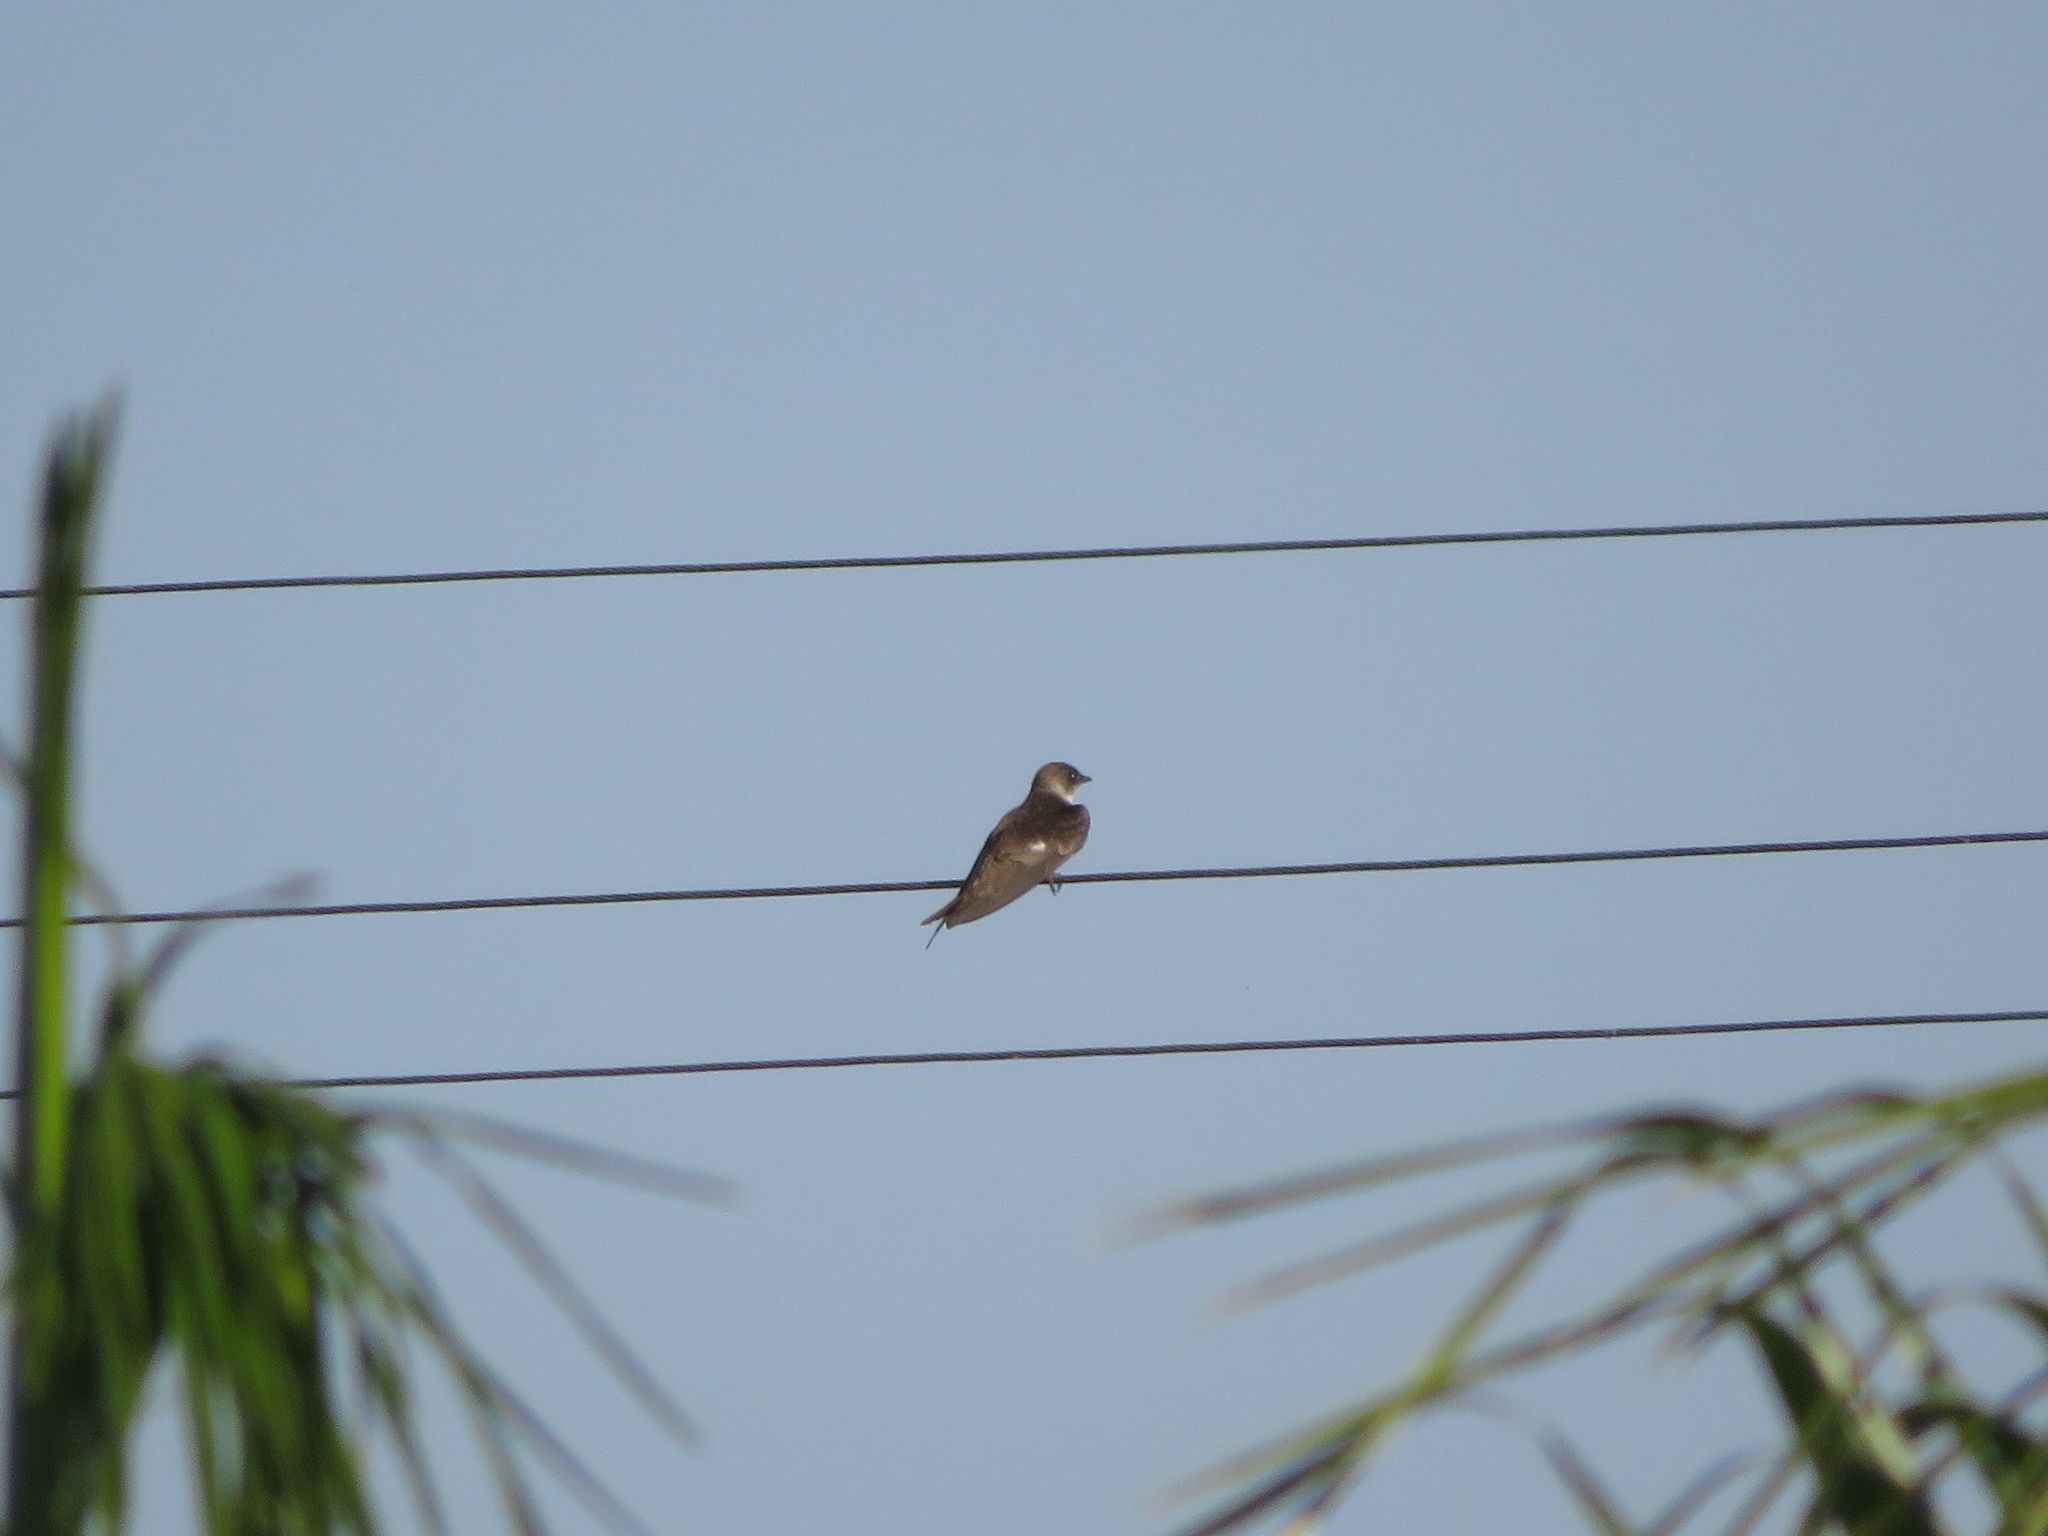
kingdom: Animalia
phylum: Chordata
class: Aves
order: Passeriformes
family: Hirundinidae
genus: Progne
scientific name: Progne tapera
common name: Brown-chested martin
